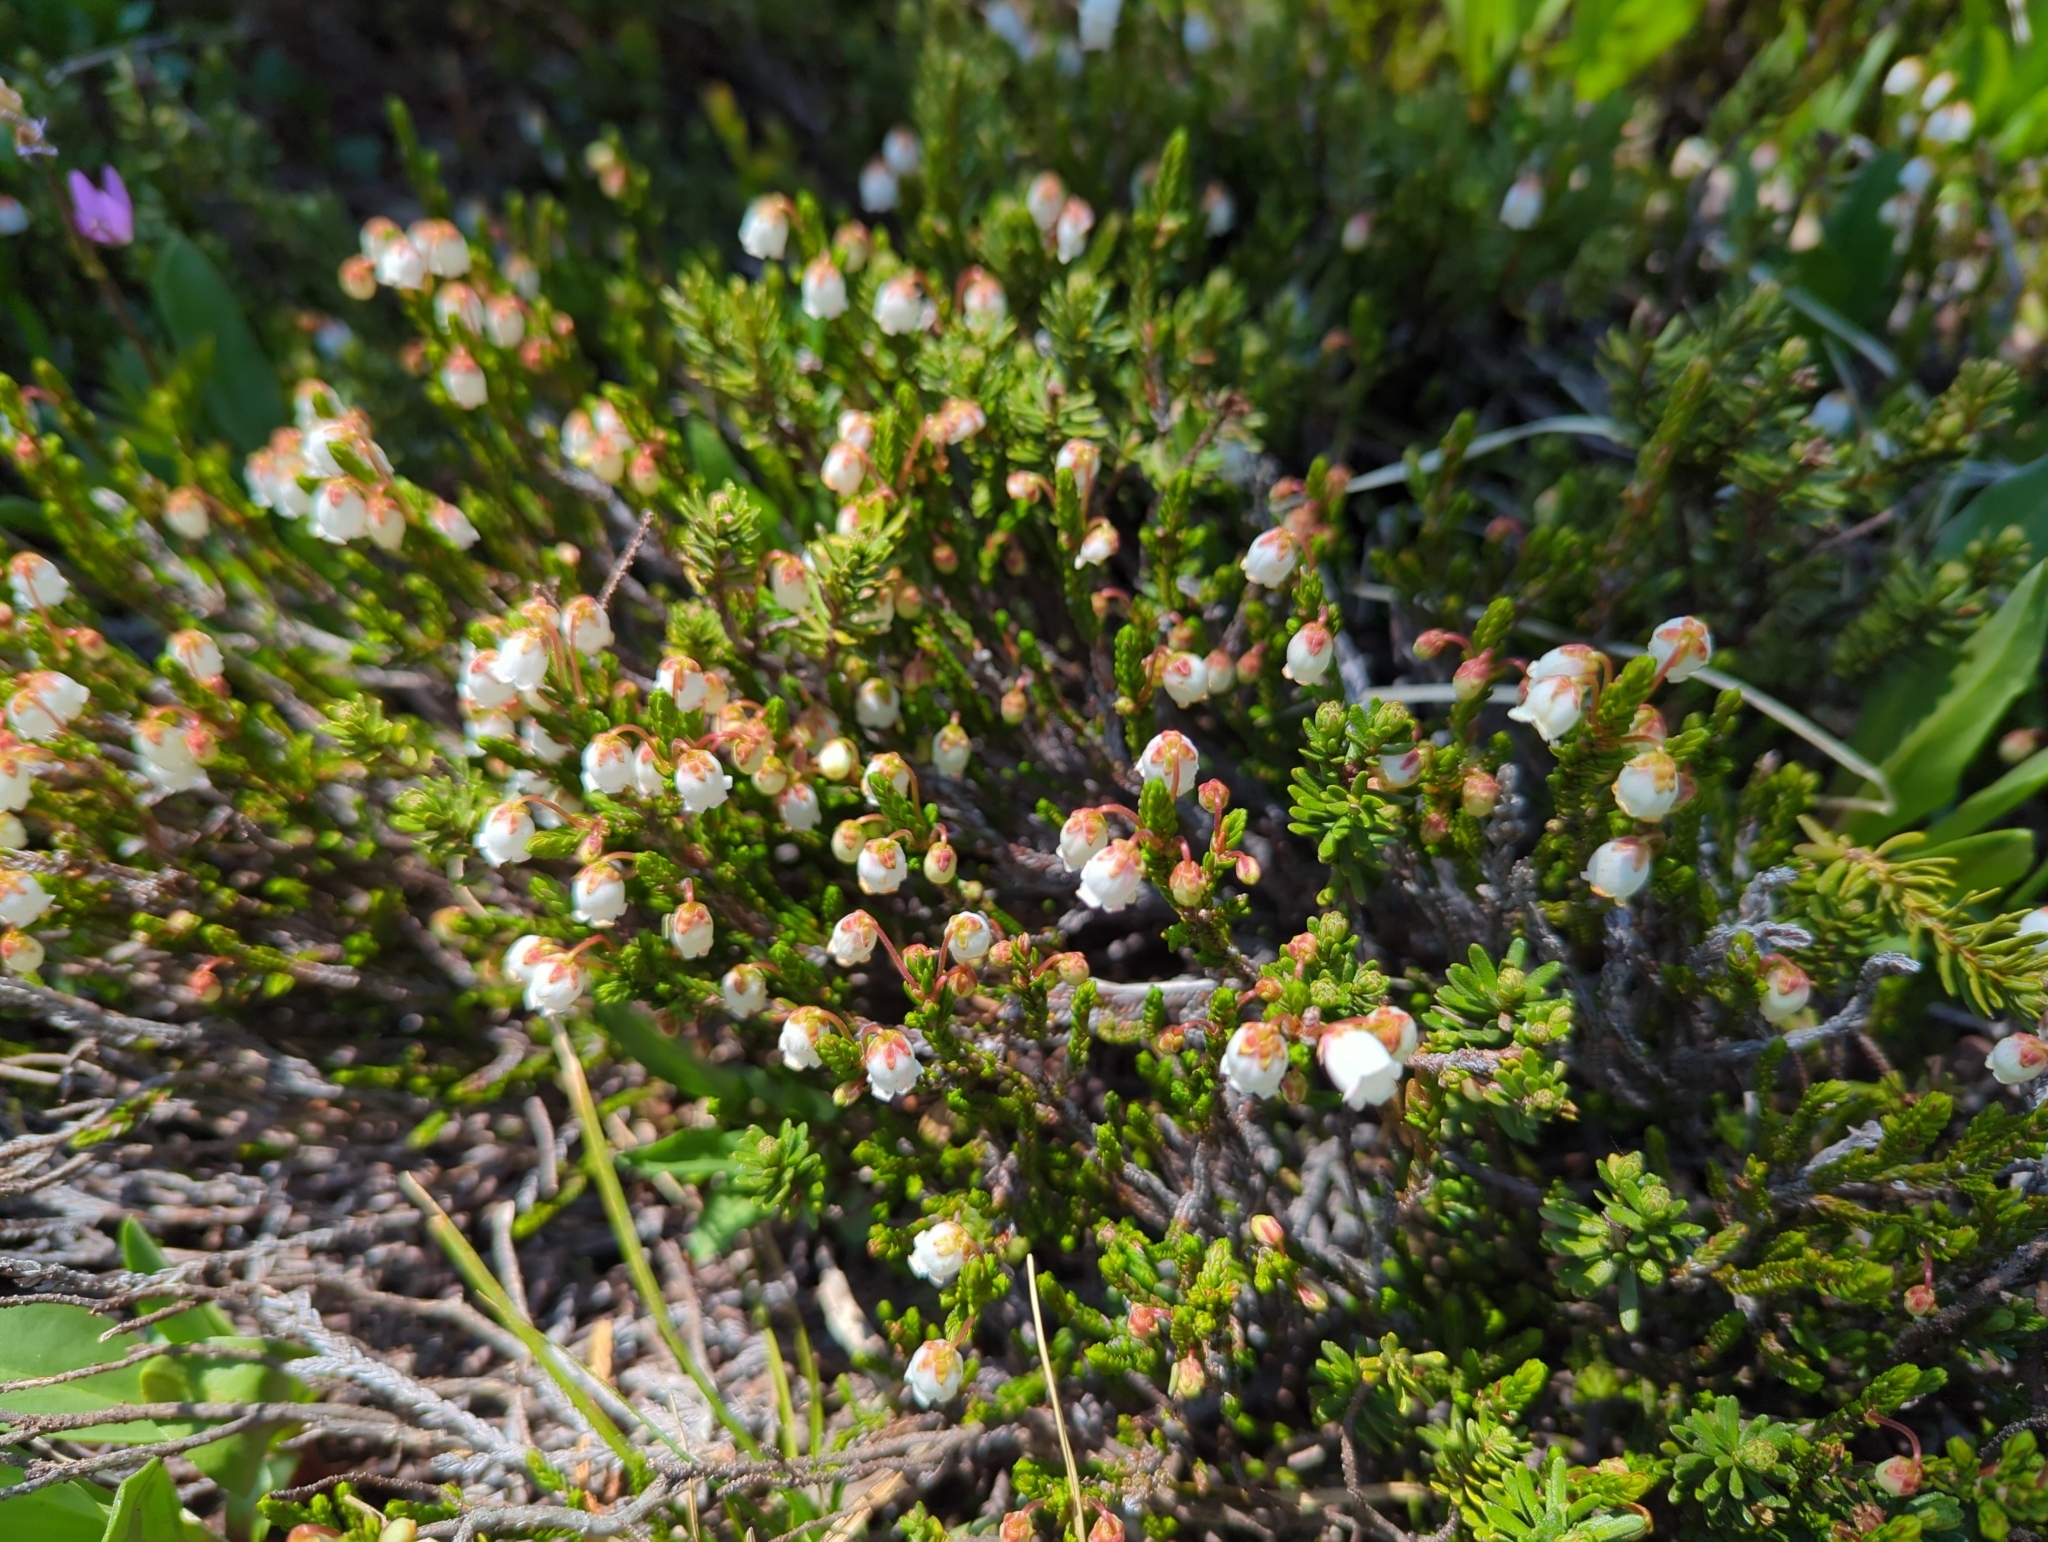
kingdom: Plantae
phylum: Tracheophyta
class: Magnoliopsida
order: Ericales
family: Ericaceae
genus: Cassiope
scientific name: Cassiope mertensiana
